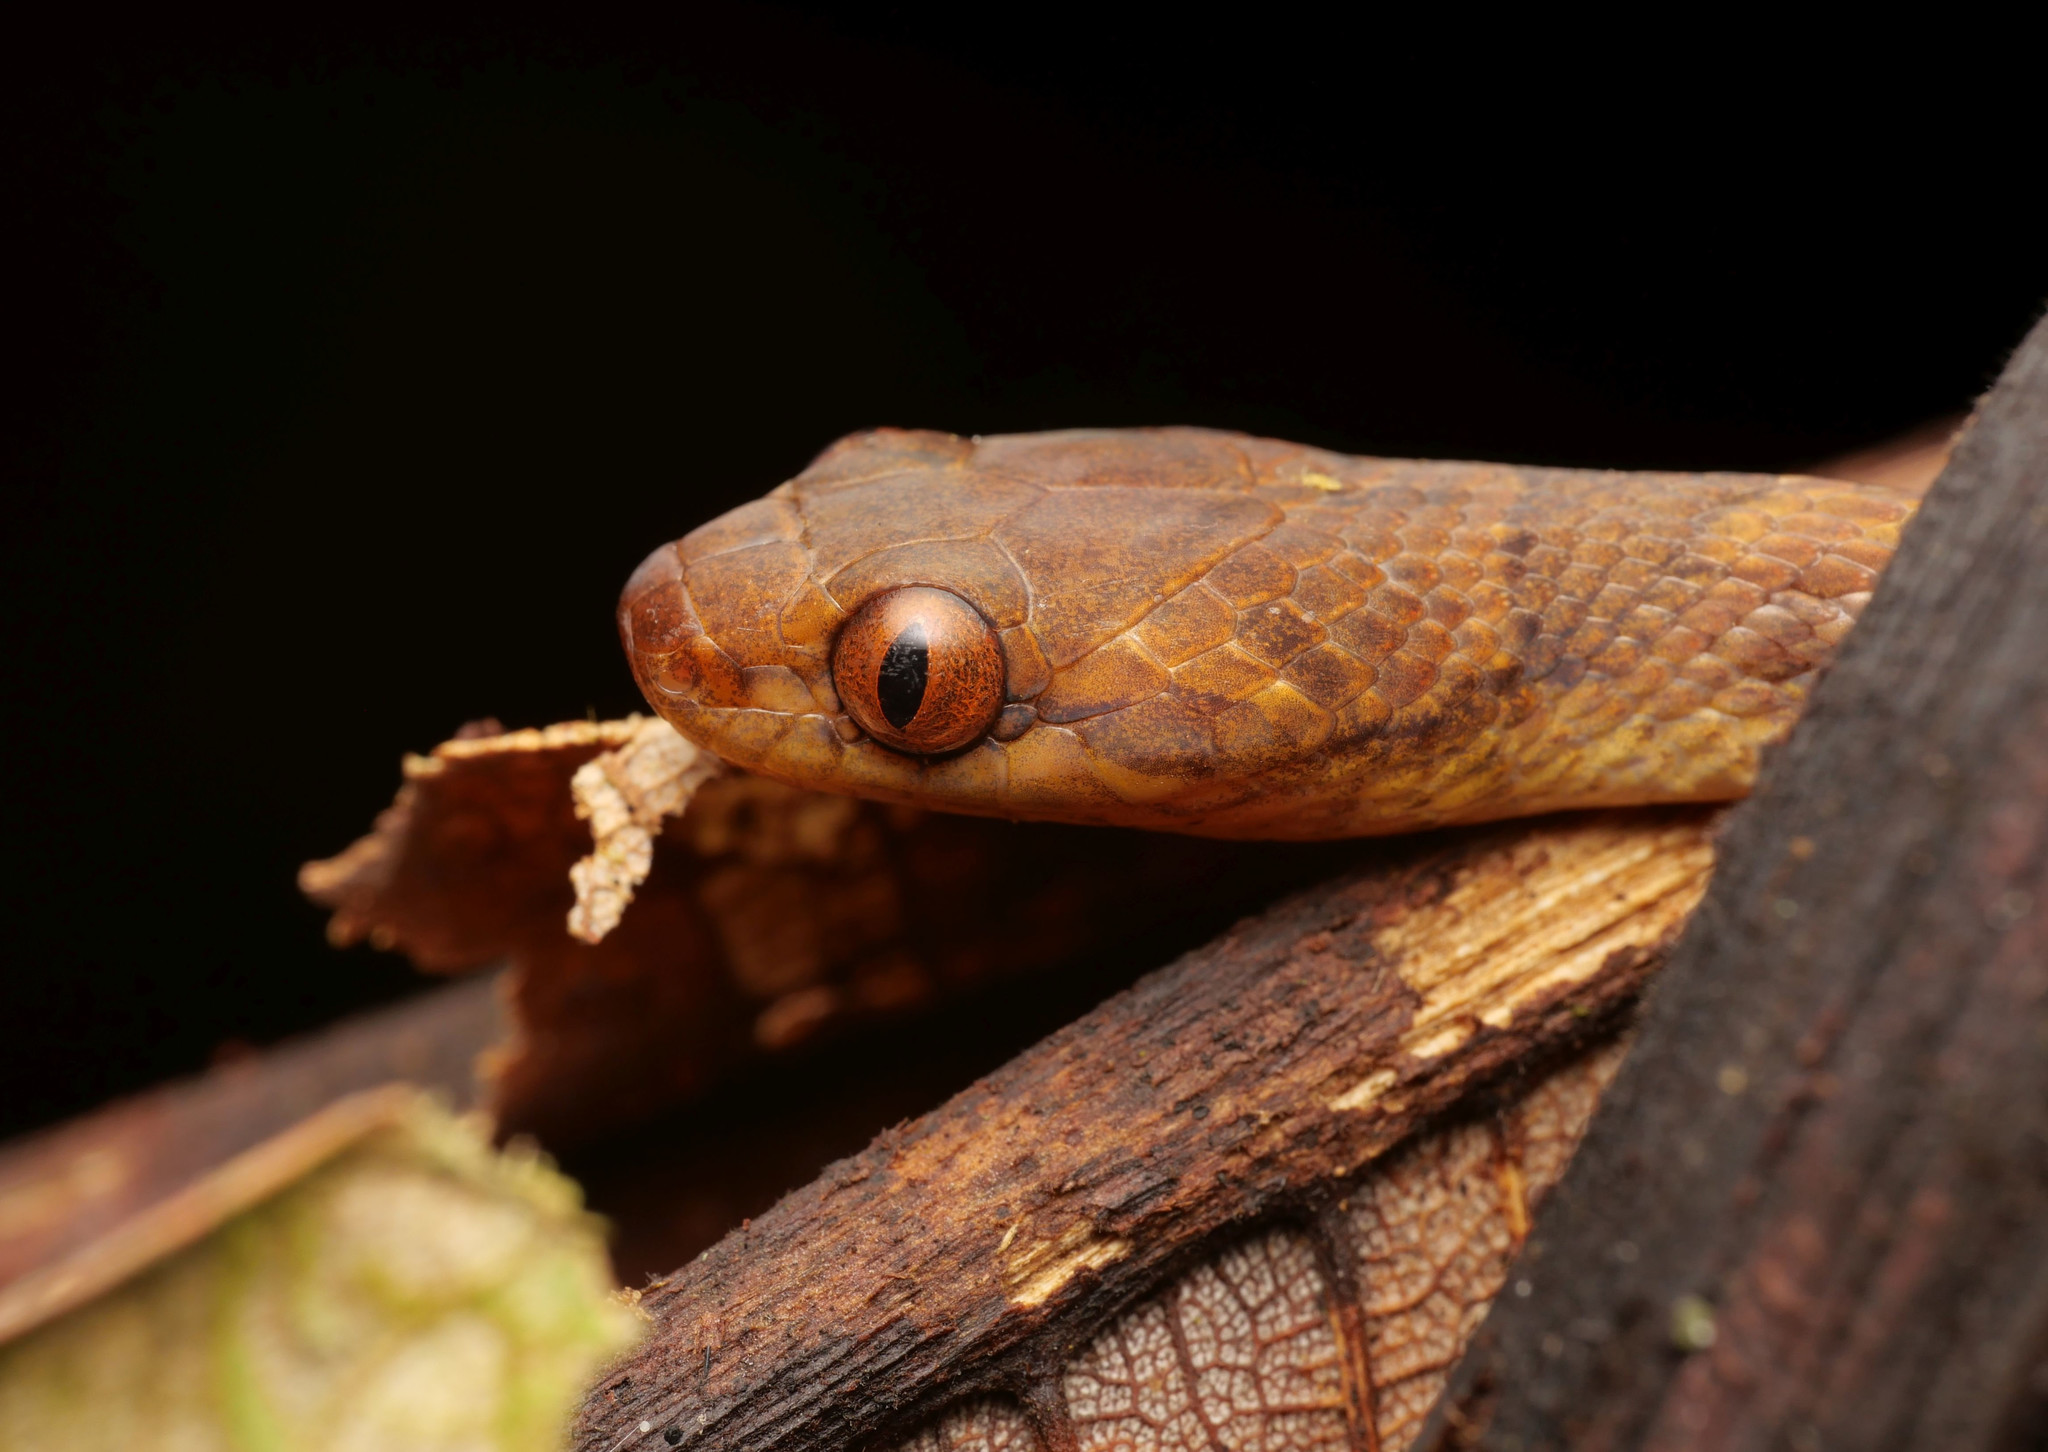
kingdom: Animalia
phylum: Chordata
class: Squamata
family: Colubridae
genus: Leptodeira
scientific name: Leptodeira ornata
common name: Northern cat-eyed snake
